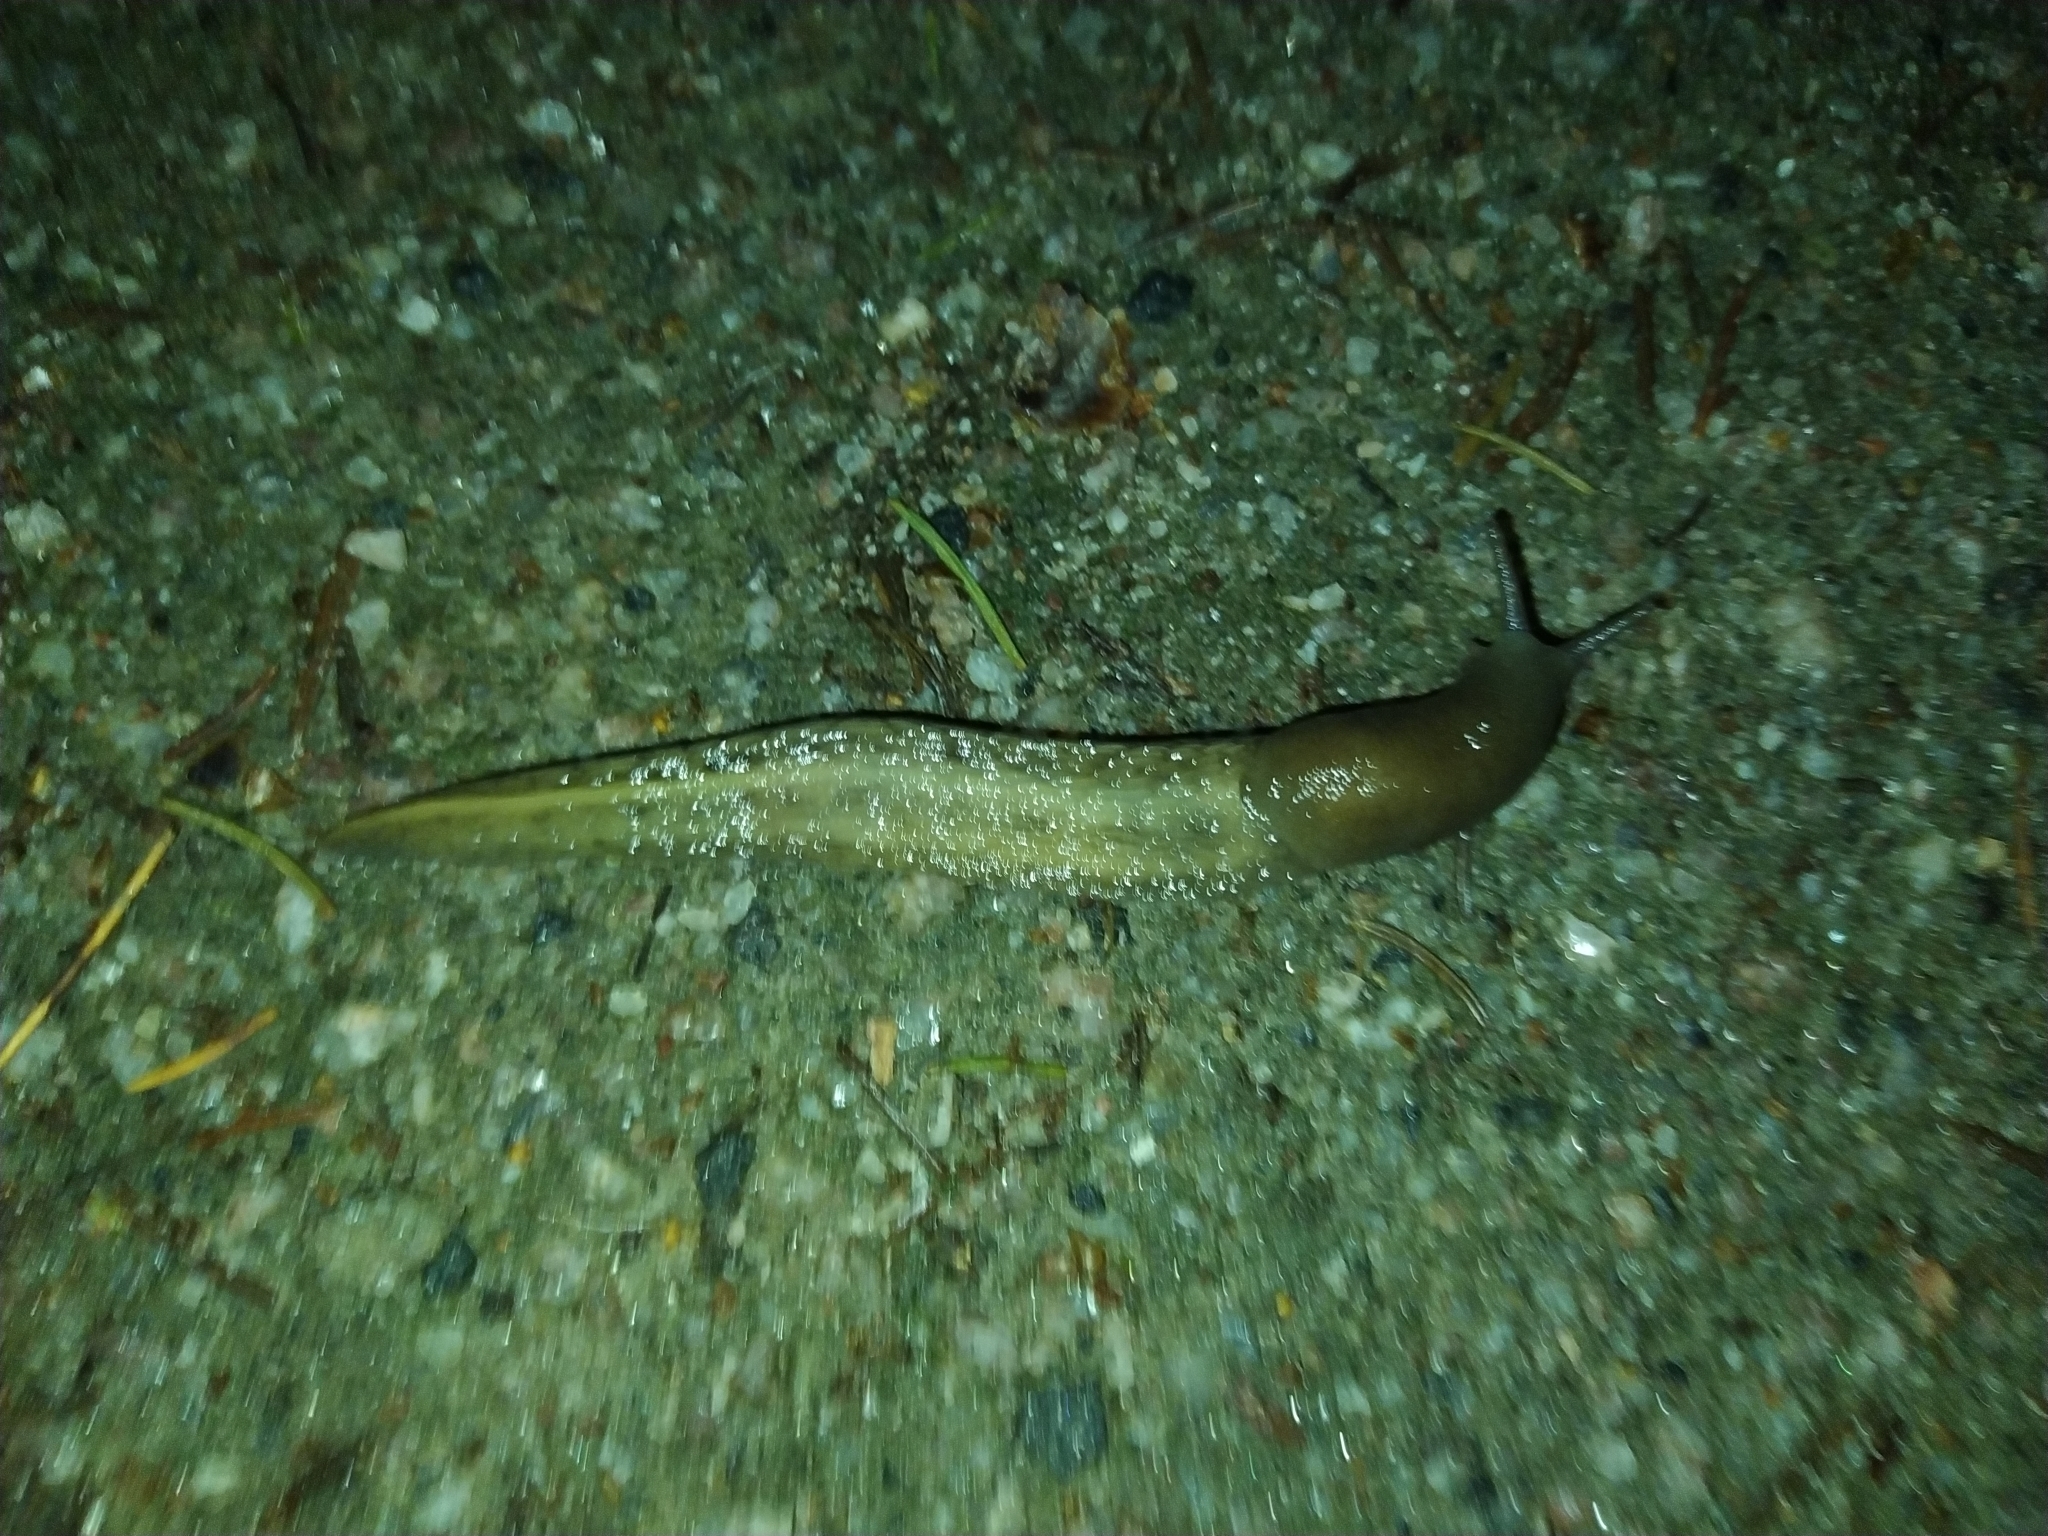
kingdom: Animalia
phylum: Mollusca
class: Gastropoda
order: Stylommatophora
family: Limacidae
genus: Limax
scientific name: Limax cinereoniger
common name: Ash-black slug
